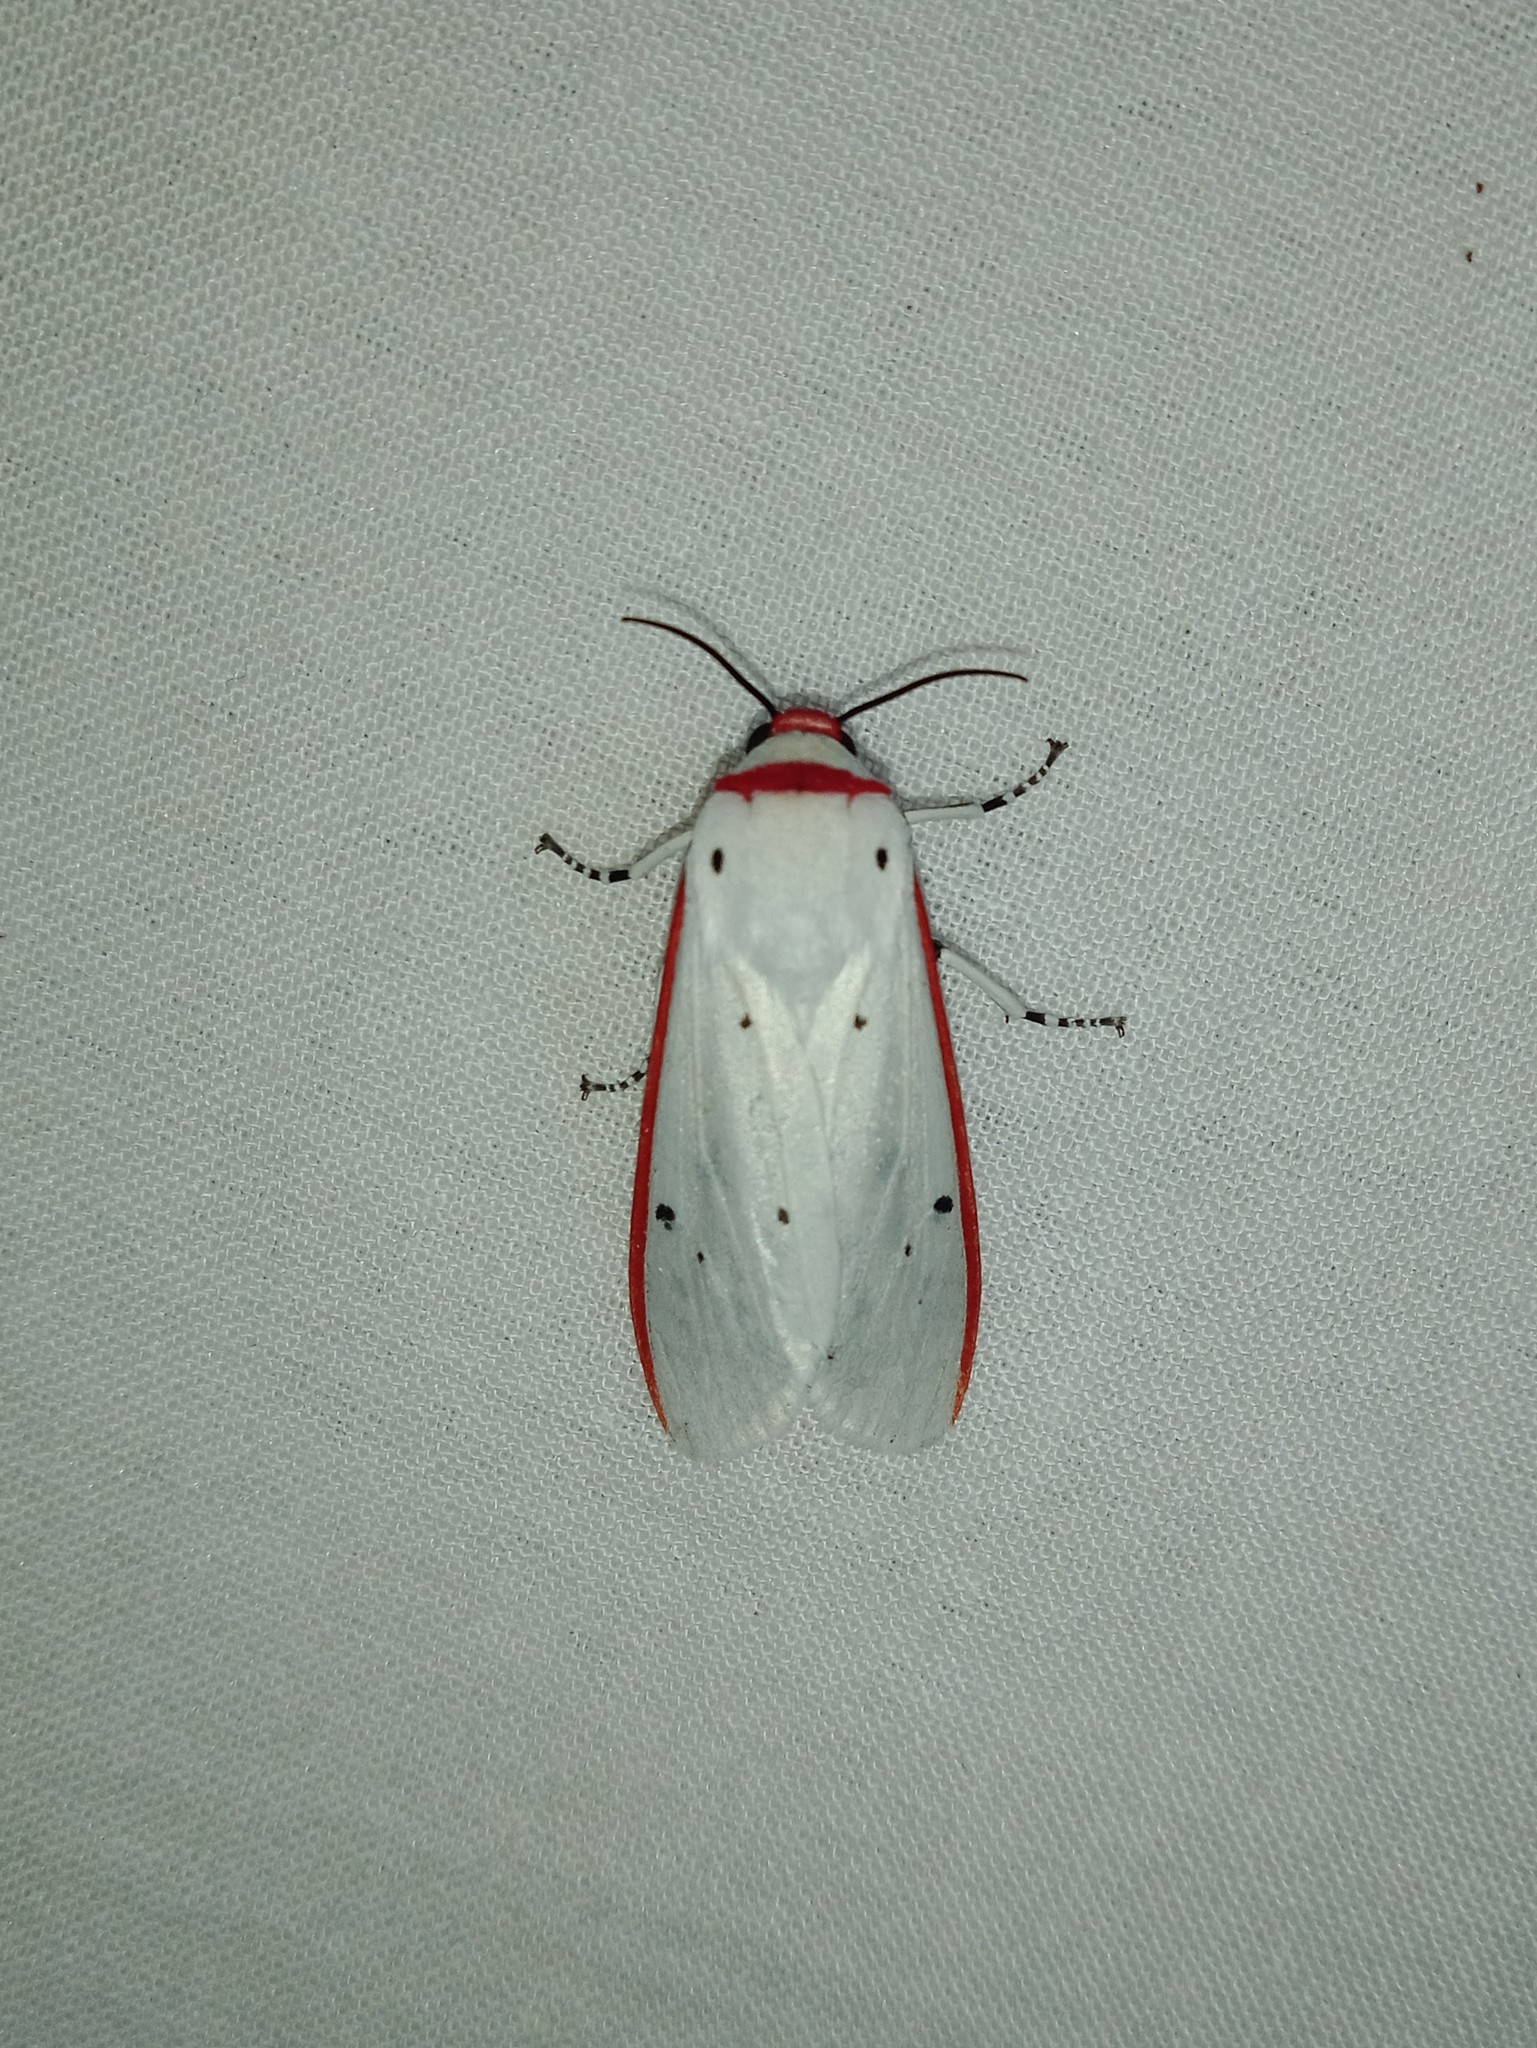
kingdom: Animalia
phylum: Arthropoda
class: Insecta
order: Lepidoptera
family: Erebidae
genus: Aloa
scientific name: Aloa lactinea
